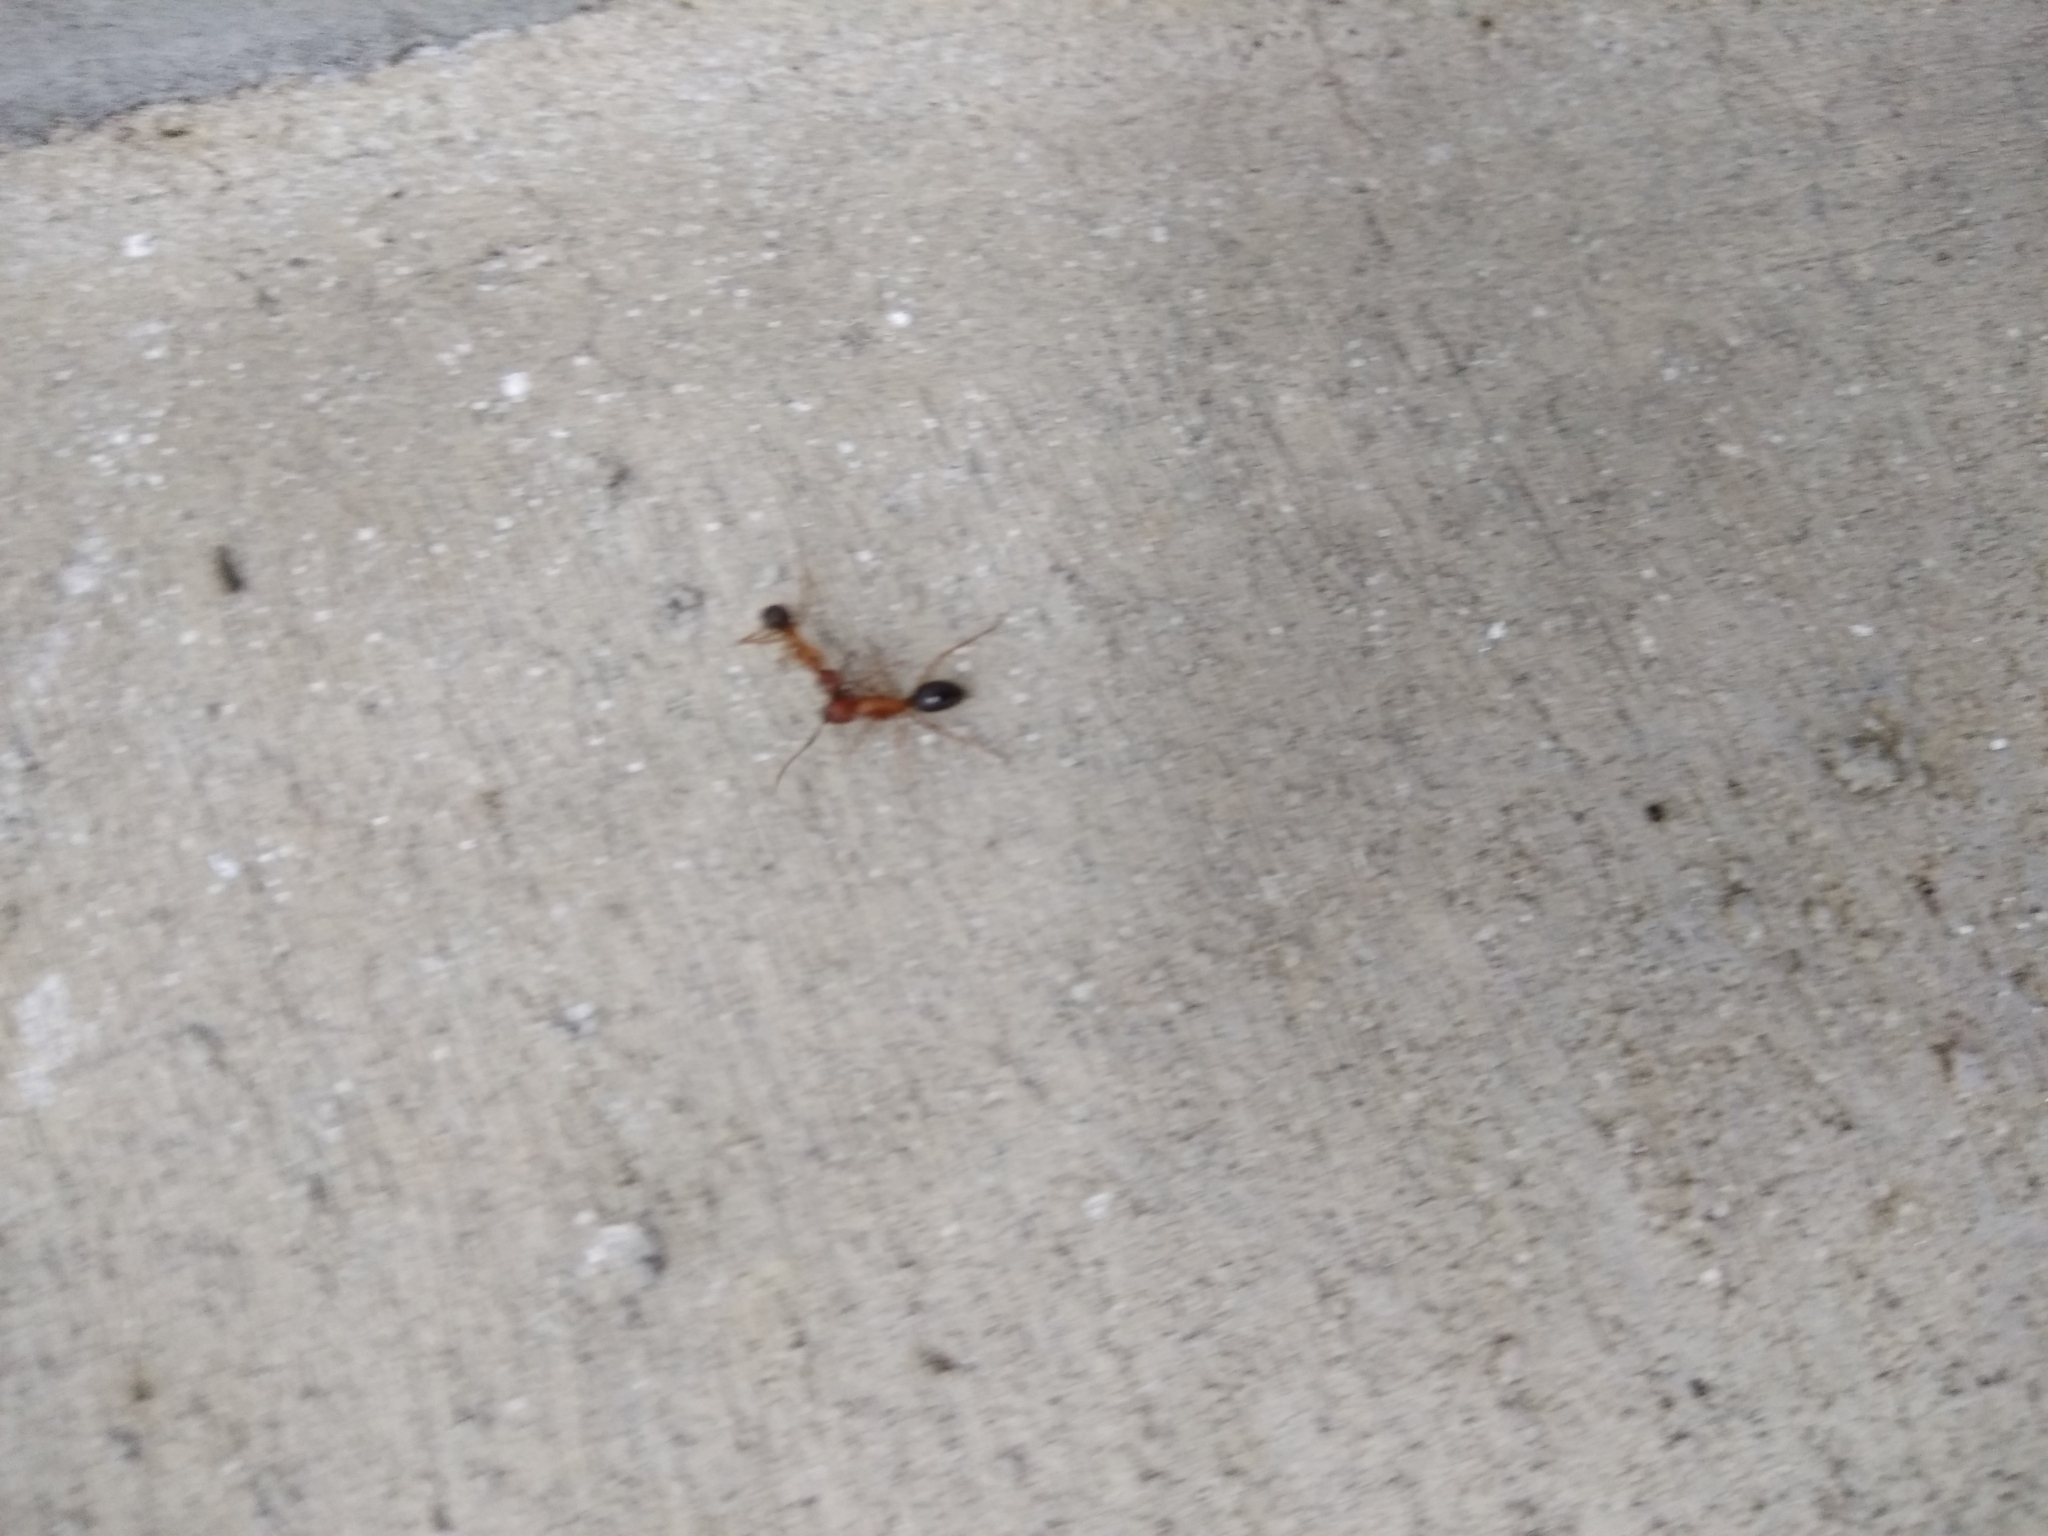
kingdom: Animalia
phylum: Arthropoda
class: Insecta
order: Hymenoptera
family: Formicidae
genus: Camponotus
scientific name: Camponotus floridanus
